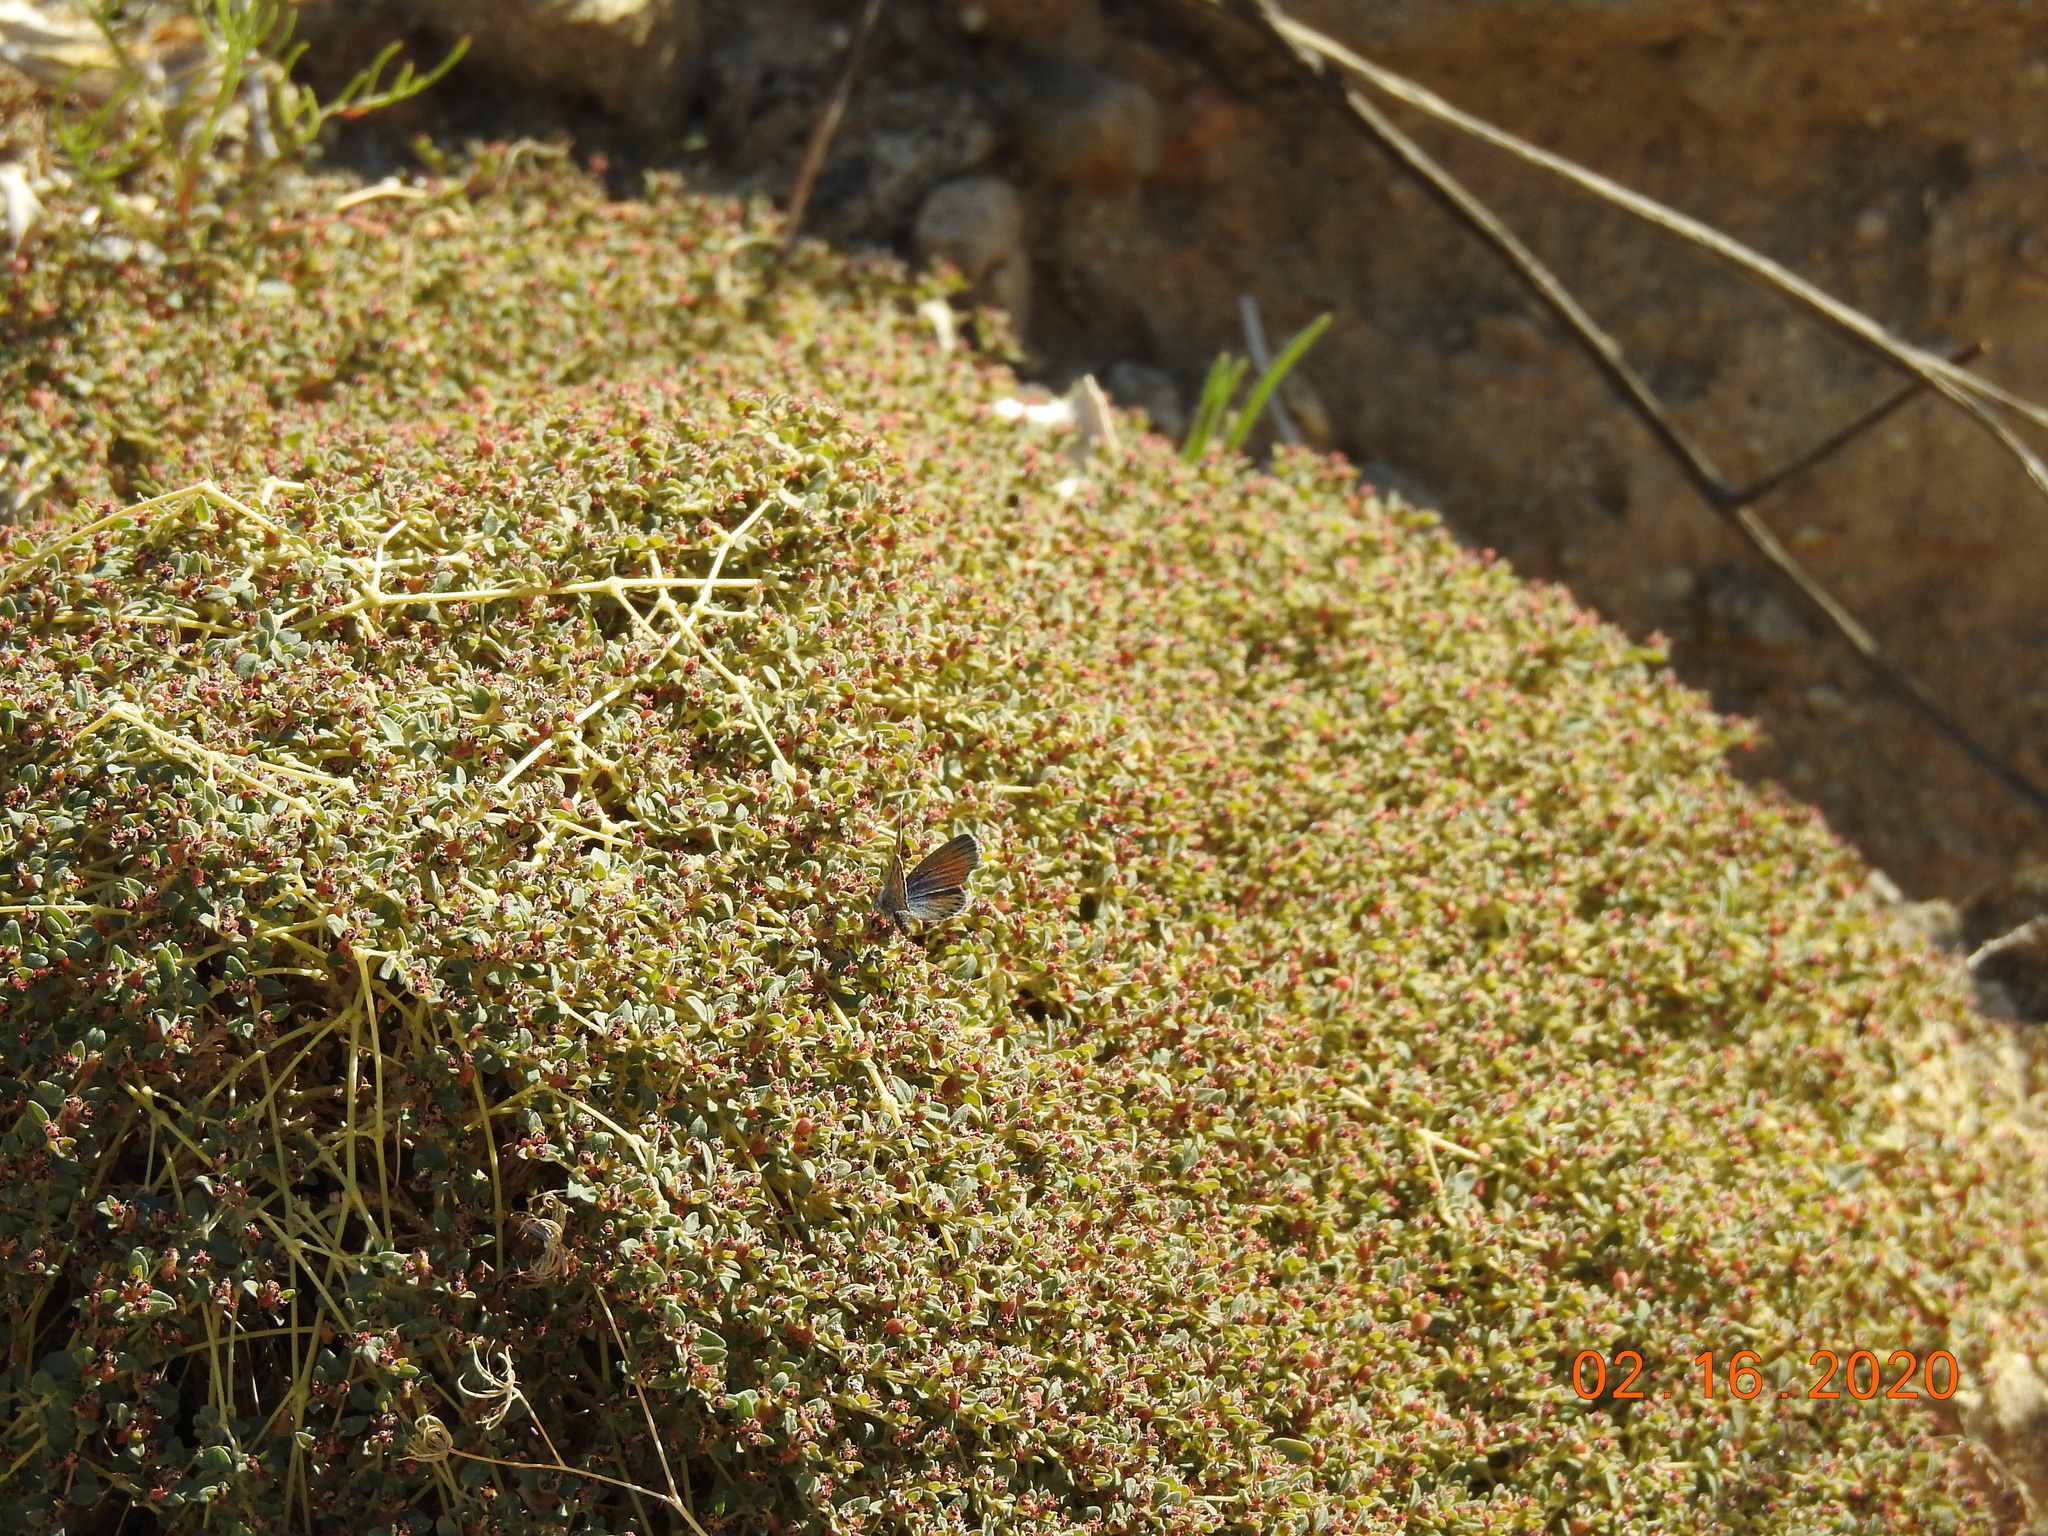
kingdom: Plantae
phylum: Tracheophyta
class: Magnoliopsida
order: Malpighiales
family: Euphorbiaceae
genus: Euphorbia
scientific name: Euphorbia polycarpa
